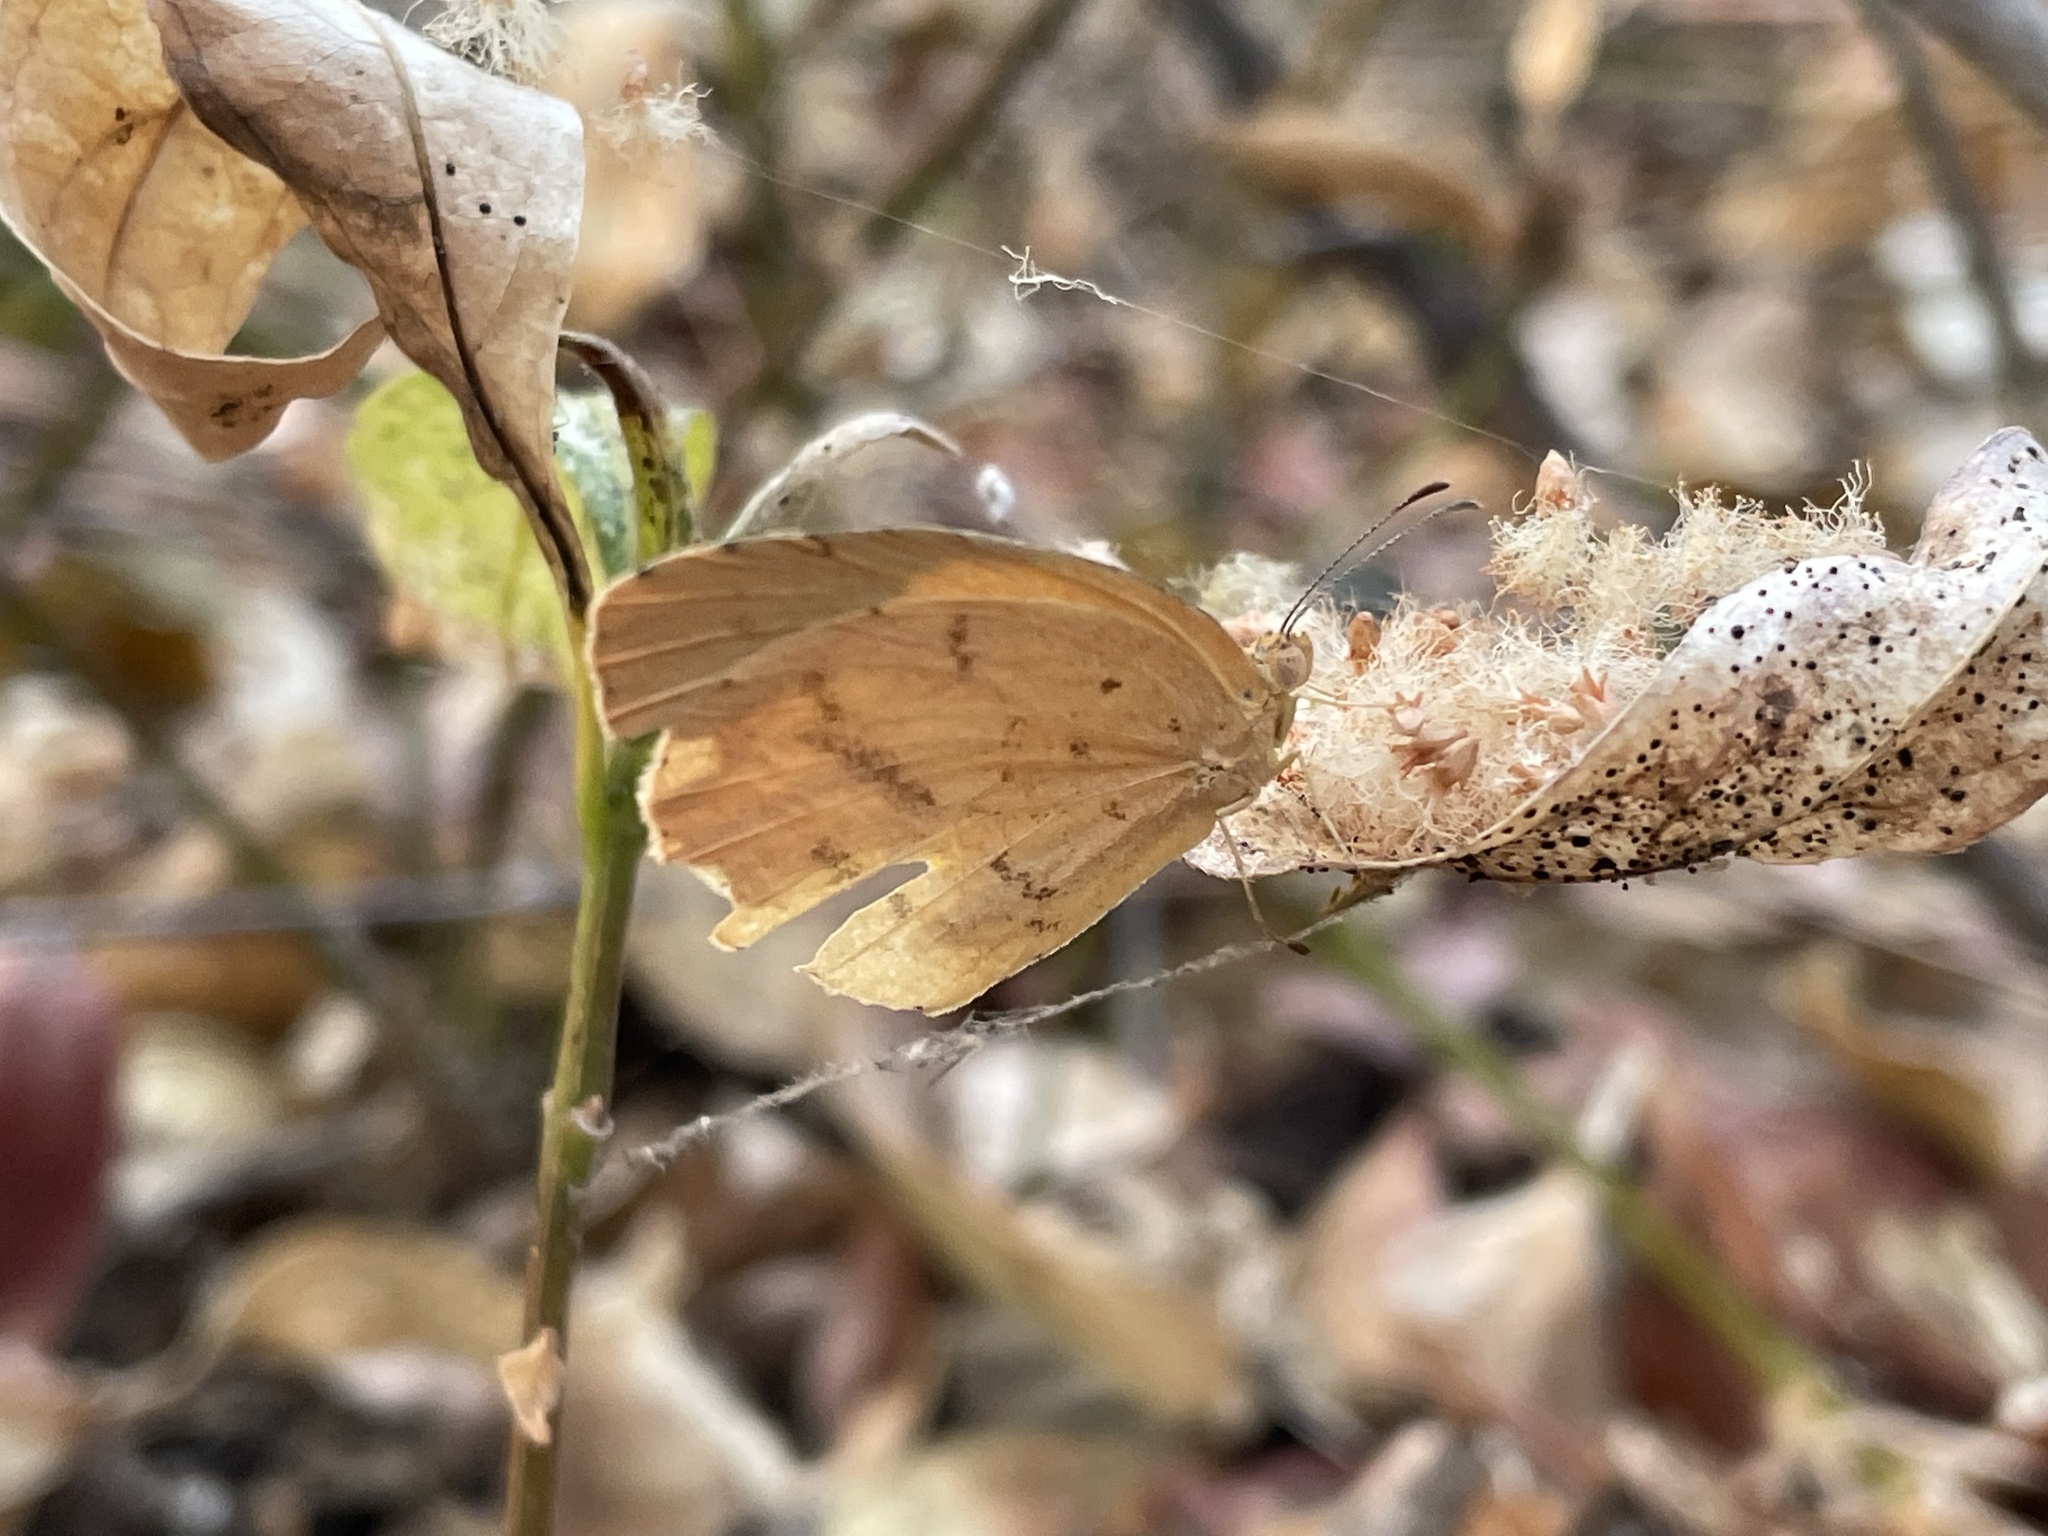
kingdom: Animalia
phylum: Arthropoda
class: Insecta
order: Lepidoptera
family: Pieridae
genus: Terias
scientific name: Terias
